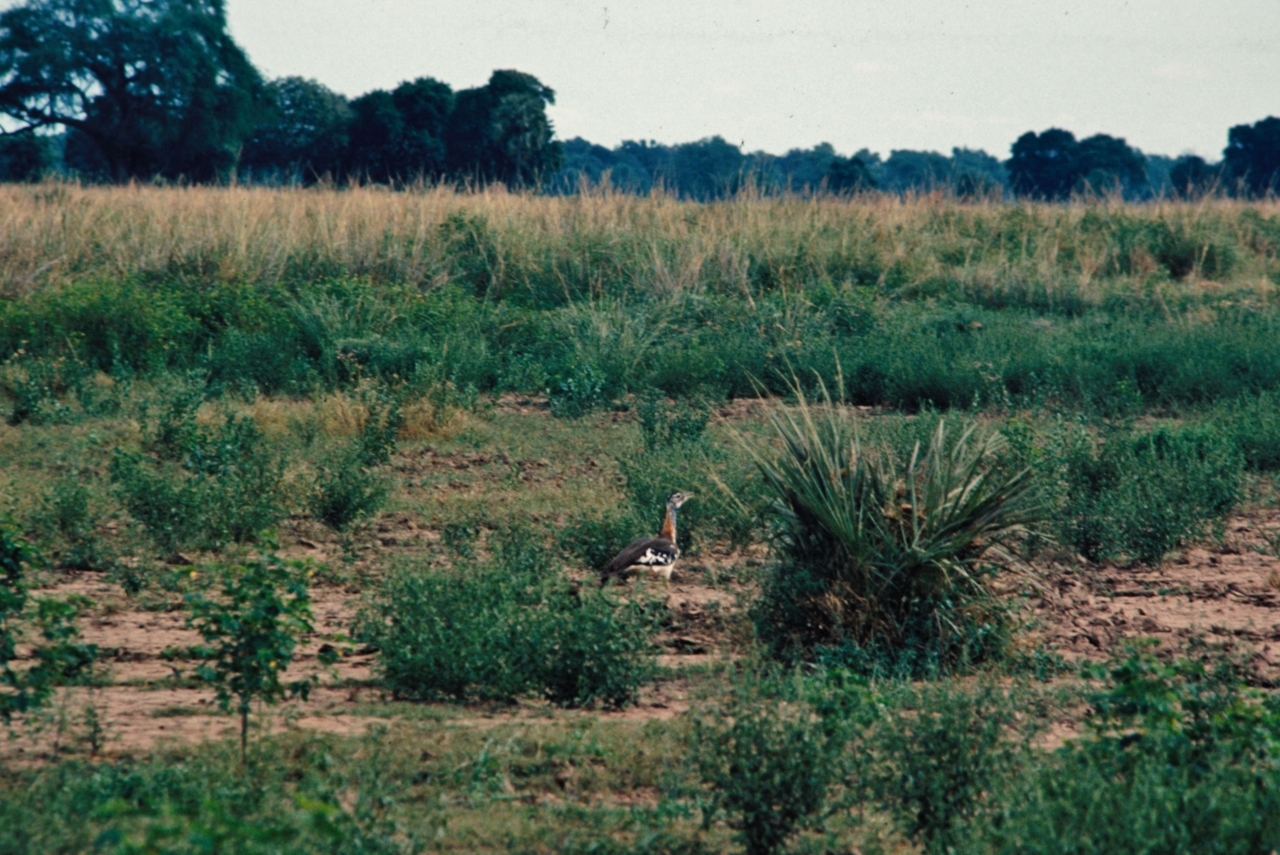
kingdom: Animalia
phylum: Chordata
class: Aves
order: Otidiformes
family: Otididae
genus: Neotis
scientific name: Neotis denhami
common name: Denham's bustard
